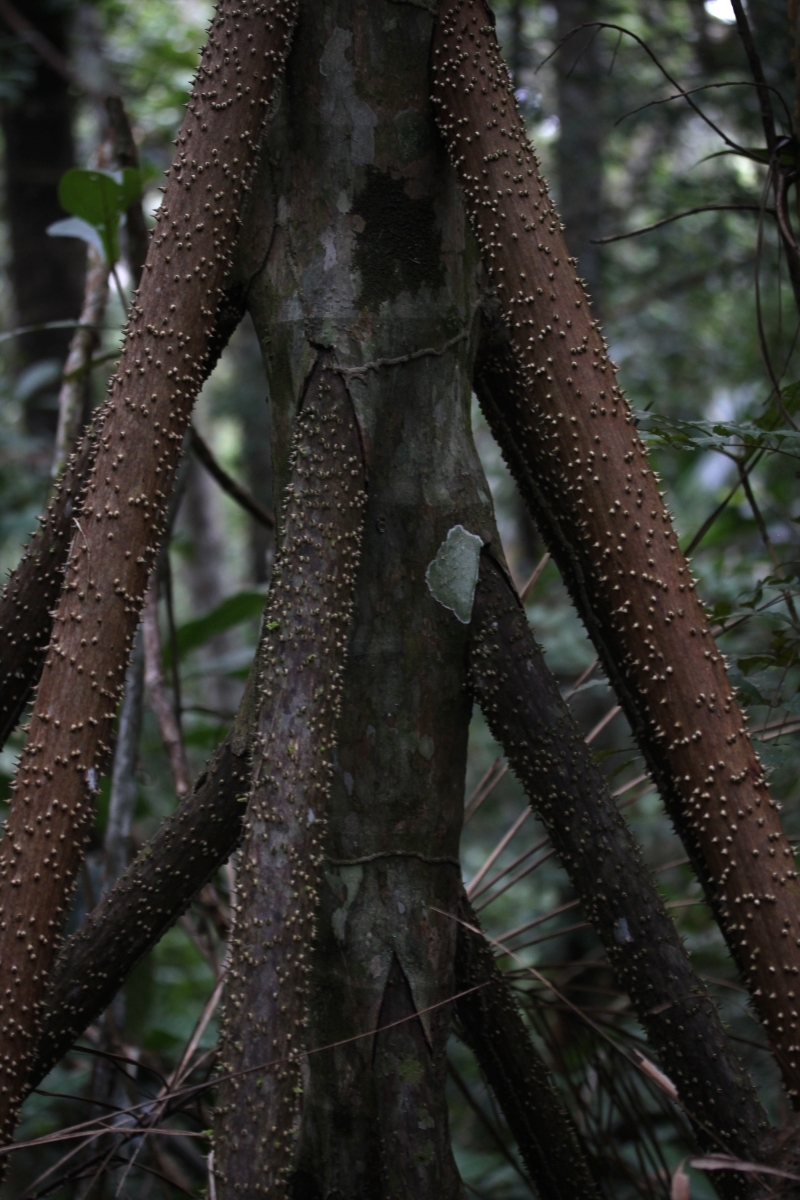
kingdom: Plantae
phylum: Tracheophyta
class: Liliopsida
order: Arecales
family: Arecaceae
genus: Socratea
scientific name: Socratea exorrhiza
